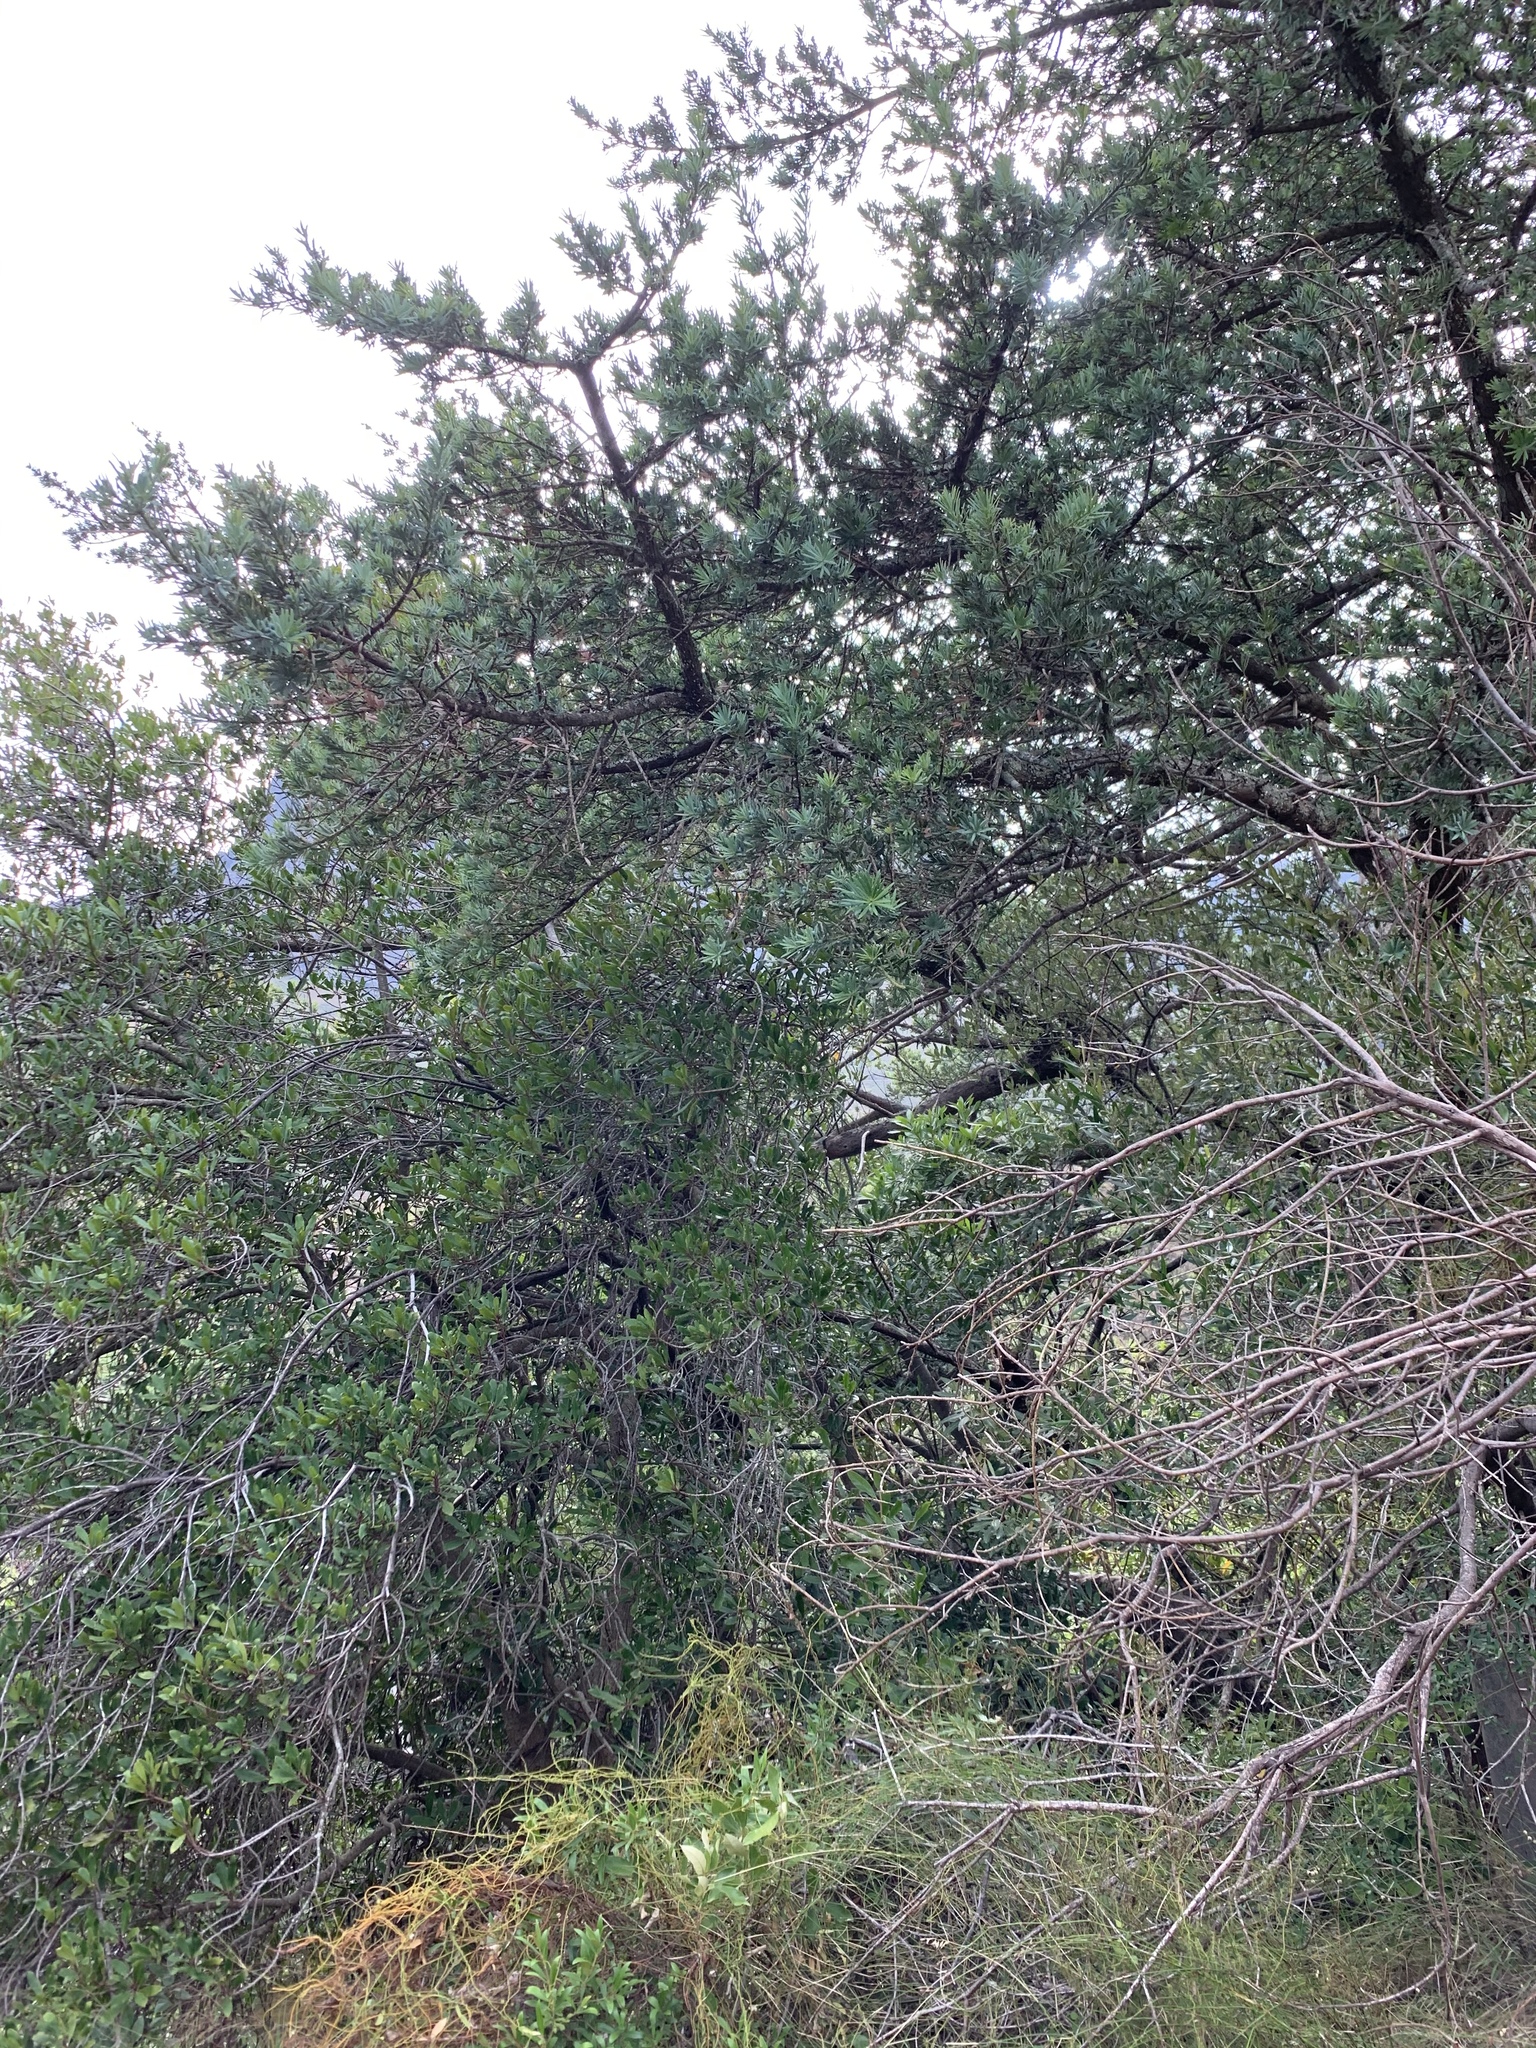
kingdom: Plantae
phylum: Tracheophyta
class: Pinopsida
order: Pinales
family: Podocarpaceae
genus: Podocarpus
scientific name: Podocarpus elongatus
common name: Breede river yellowwood
